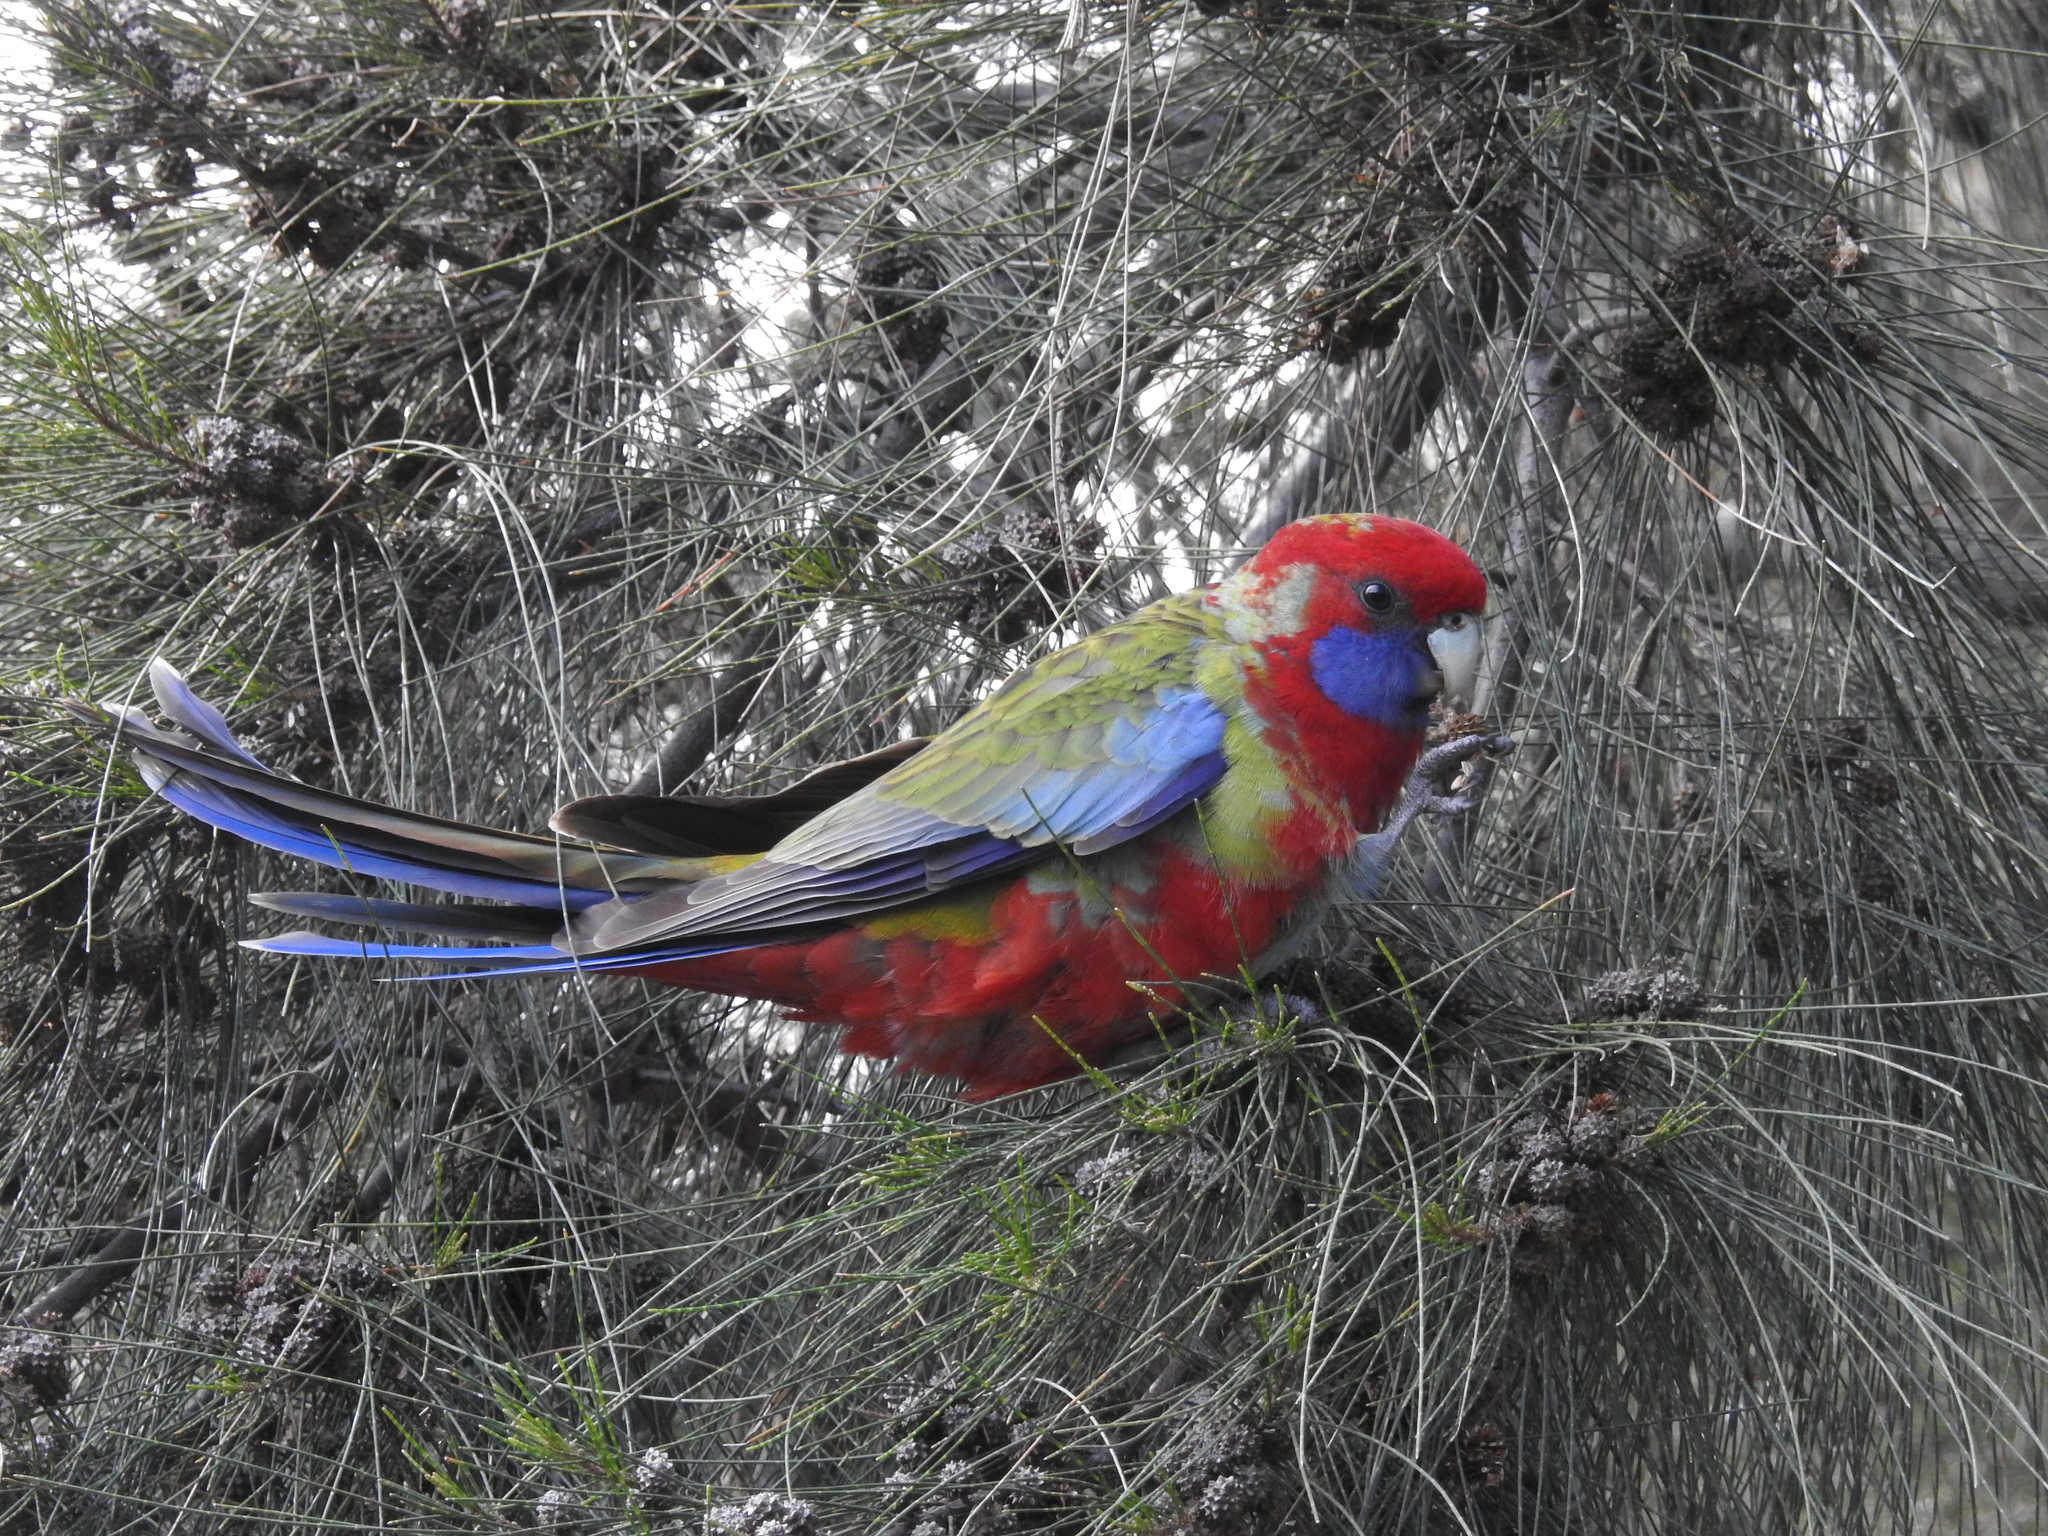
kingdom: Animalia
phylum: Chordata
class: Aves
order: Psittaciformes
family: Psittacidae
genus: Platycercus
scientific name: Platycercus elegans
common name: Crimson rosella
